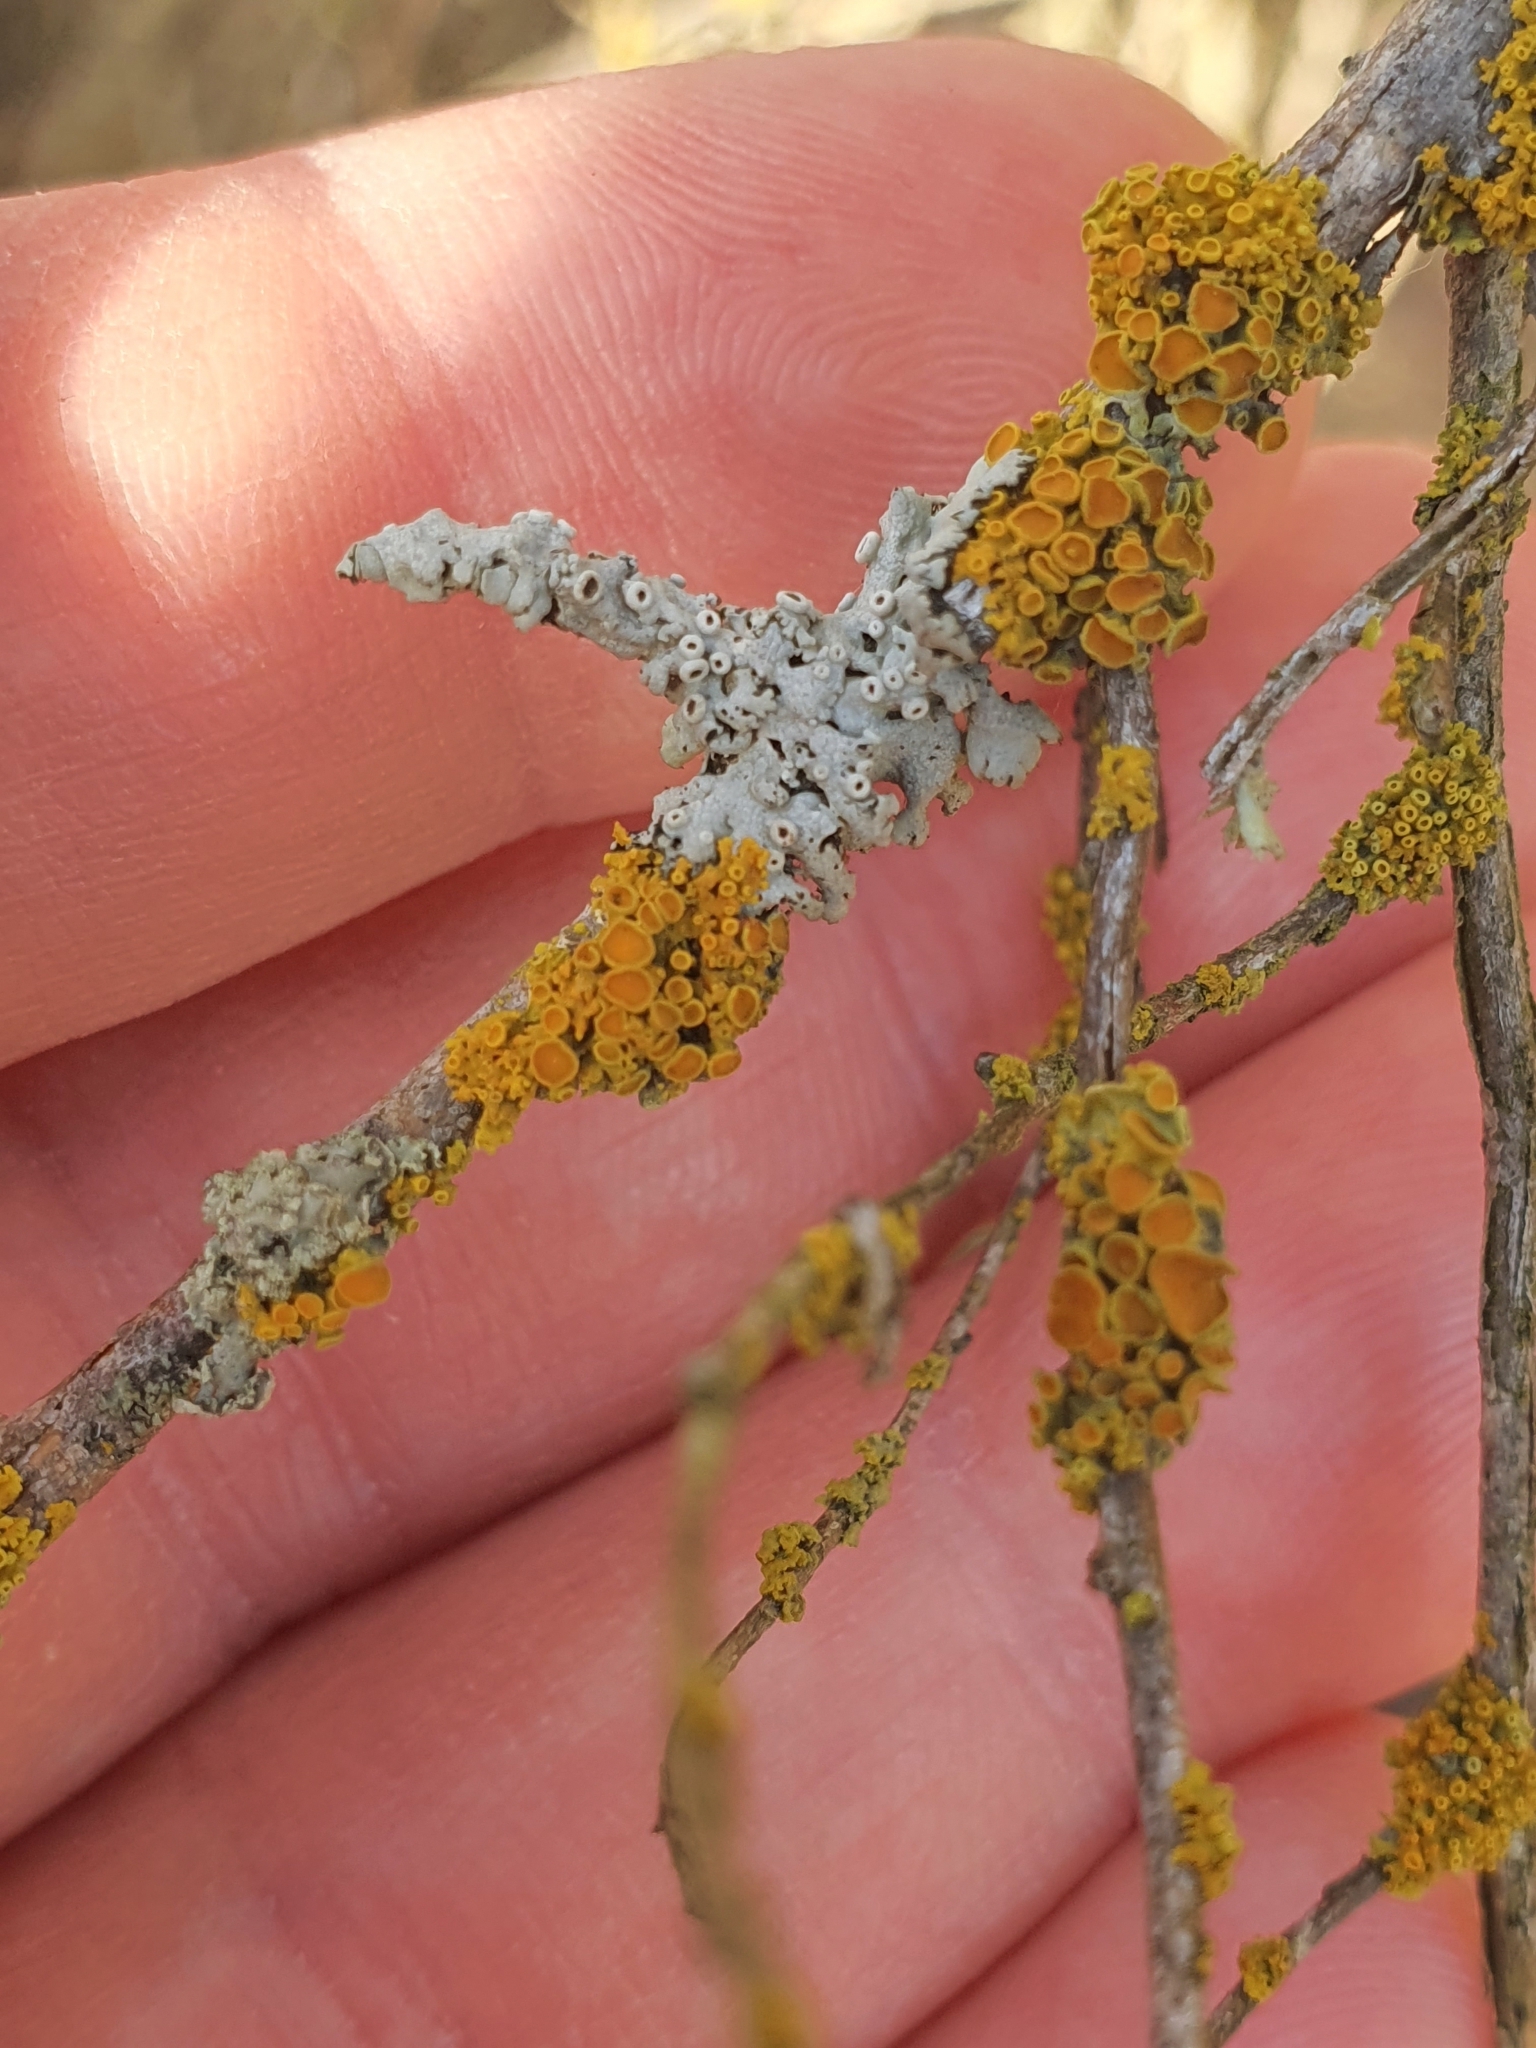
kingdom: Fungi
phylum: Ascomycota
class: Lecanoromycetes
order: Teloschistales
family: Teloschistaceae
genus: Polycauliona
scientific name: Polycauliona polycarpa
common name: Pin-cushion sunburst lichen
